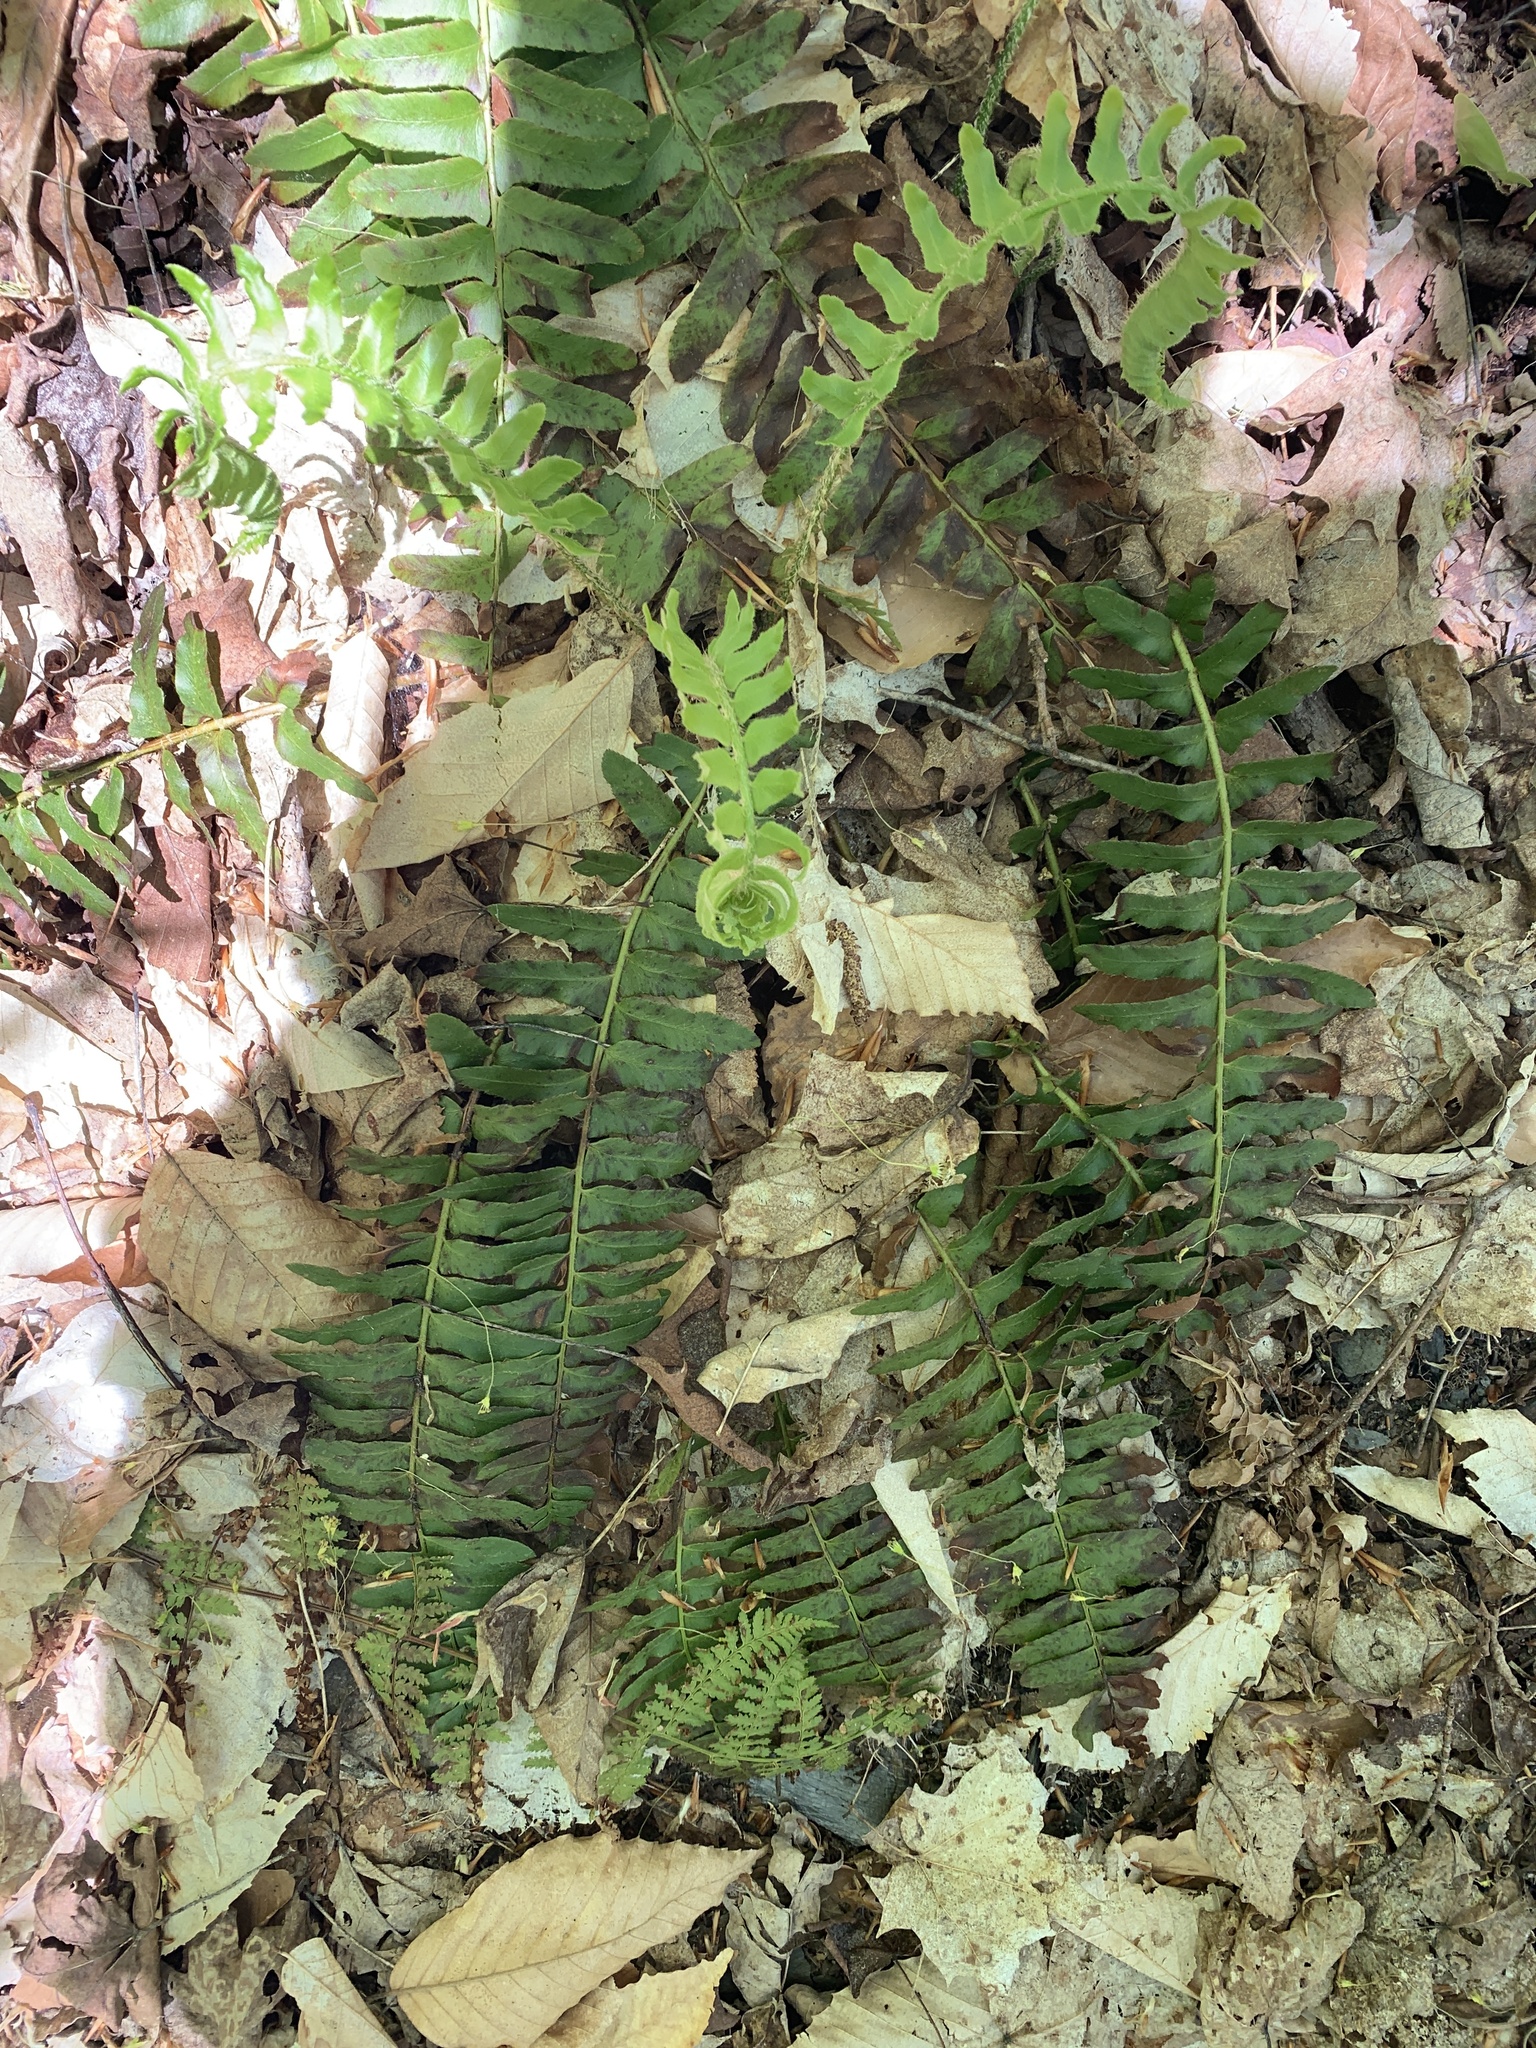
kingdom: Plantae
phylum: Tracheophyta
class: Polypodiopsida
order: Polypodiales
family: Dryopteridaceae
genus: Polystichum
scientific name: Polystichum acrostichoides
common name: Christmas fern
